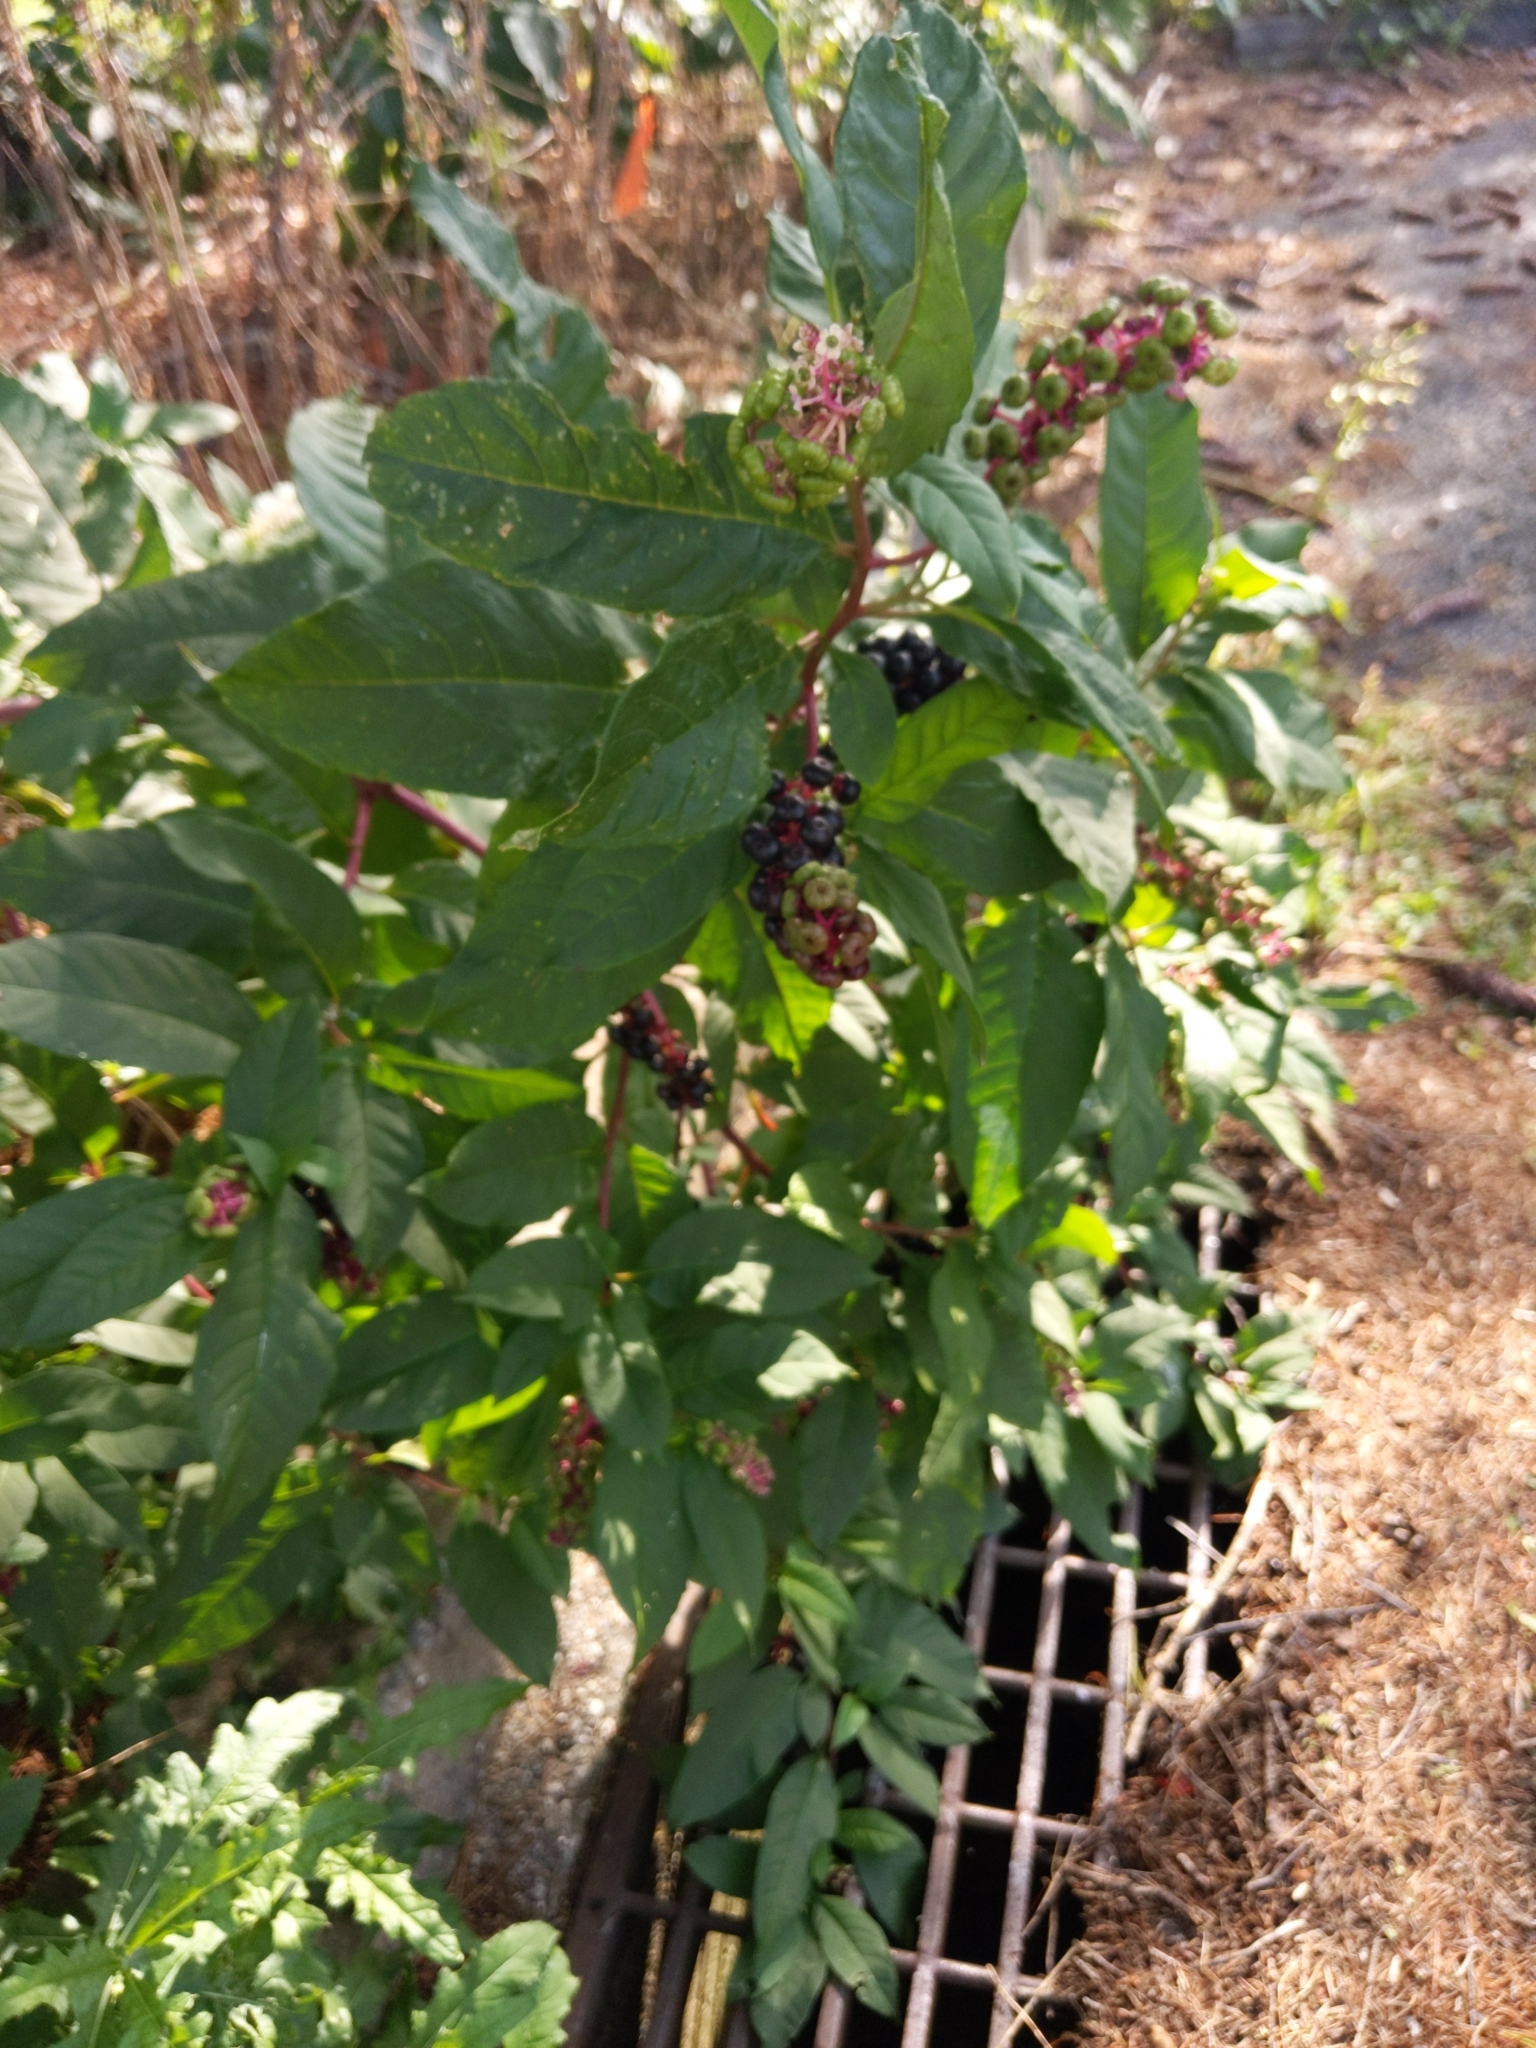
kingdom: Plantae
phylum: Tracheophyta
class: Magnoliopsida
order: Caryophyllales
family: Phytolaccaceae
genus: Phytolacca
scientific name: Phytolacca americana
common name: American pokeweed
